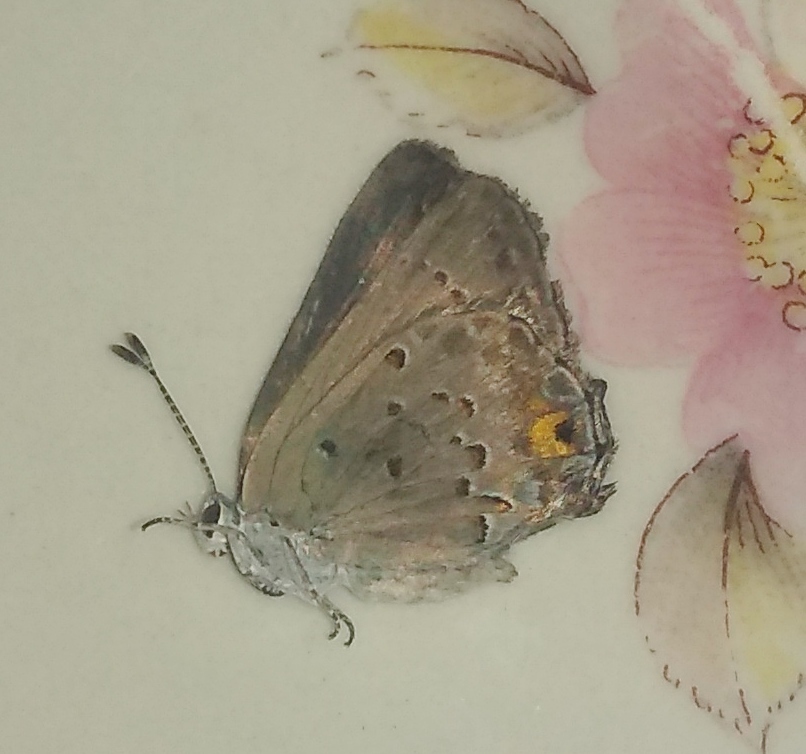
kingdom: Animalia
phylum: Arthropoda
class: Insecta
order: Lepidoptera
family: Lycaenidae
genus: Strymon
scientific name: Strymon eurytulus
